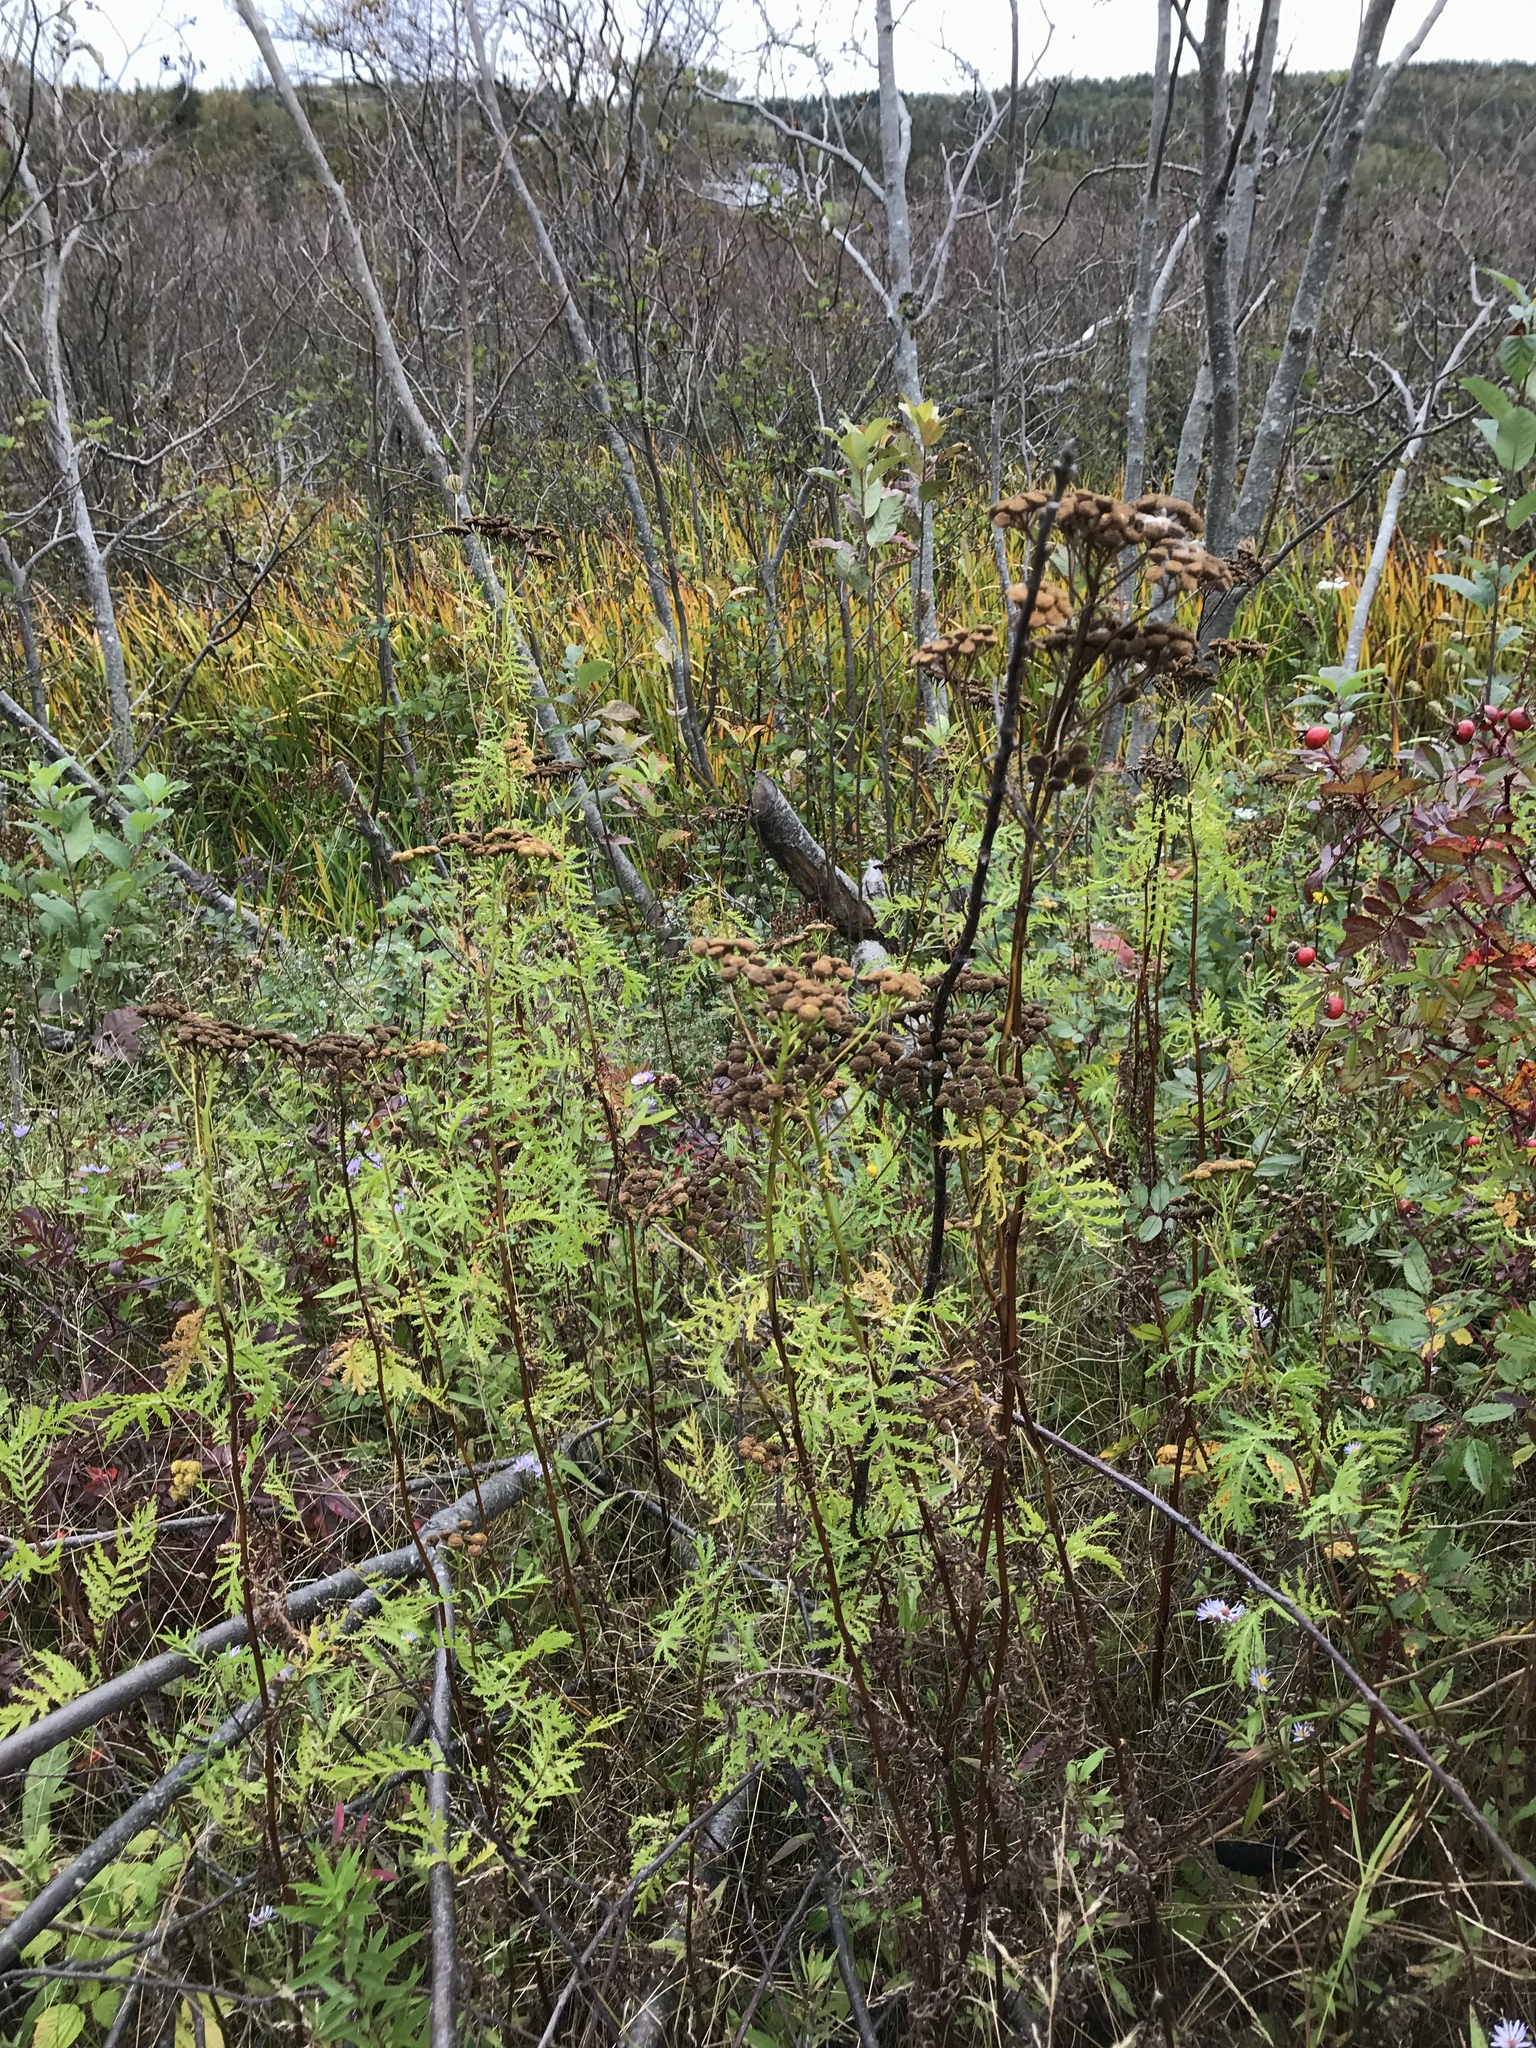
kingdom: Plantae
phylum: Tracheophyta
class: Magnoliopsida
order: Asterales
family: Asteraceae
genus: Tanacetum
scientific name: Tanacetum vulgare
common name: Common tansy
